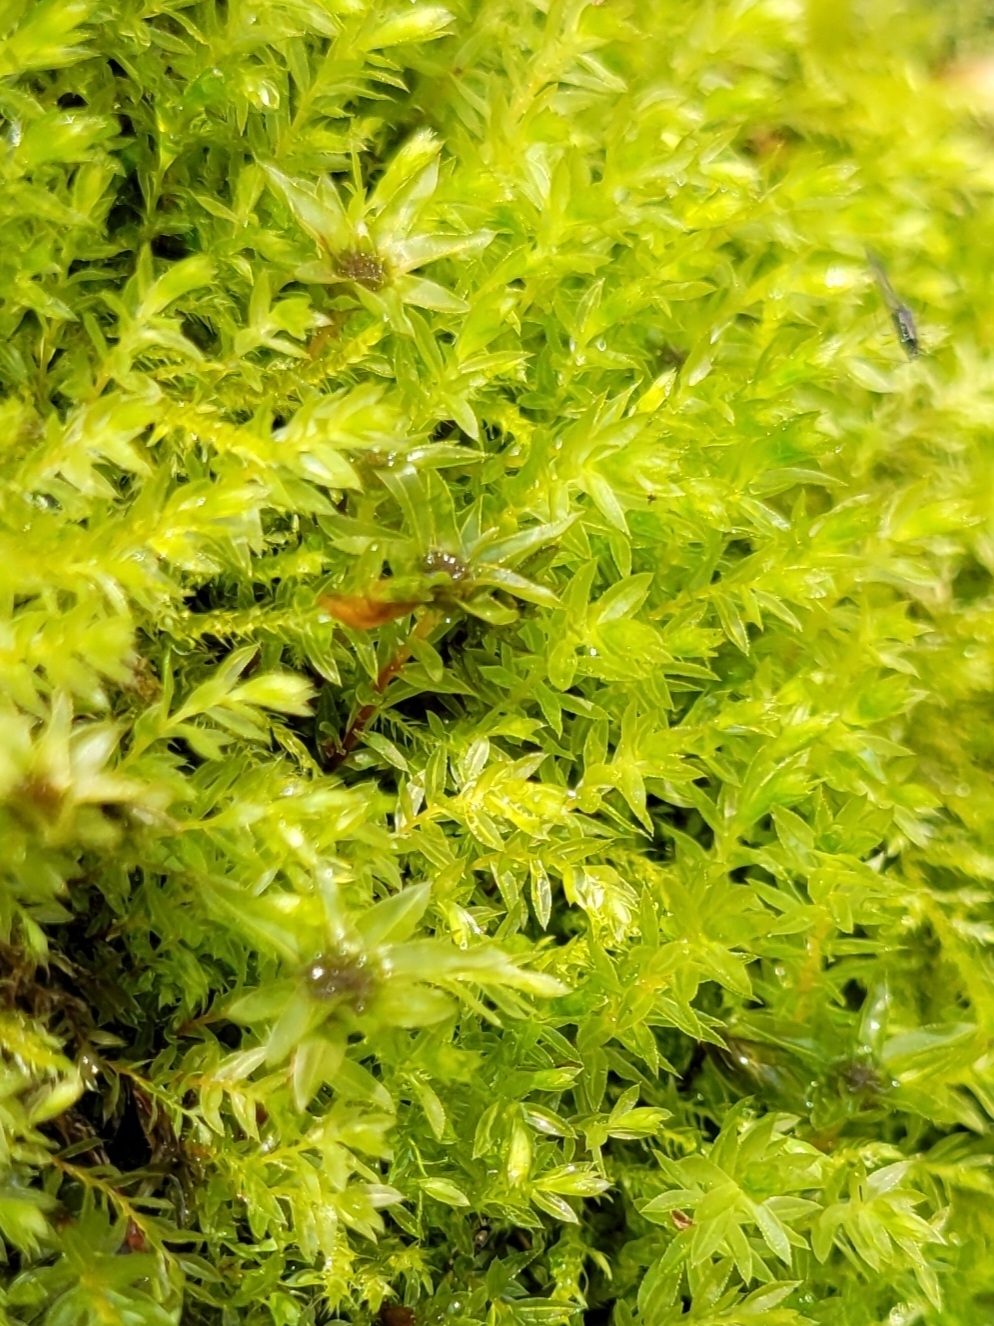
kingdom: Plantae
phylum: Bryophyta
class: Bryopsida
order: Bryales
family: Mniaceae
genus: Mnium
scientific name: Mnium hornum
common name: Swan's-neck leafy moss
